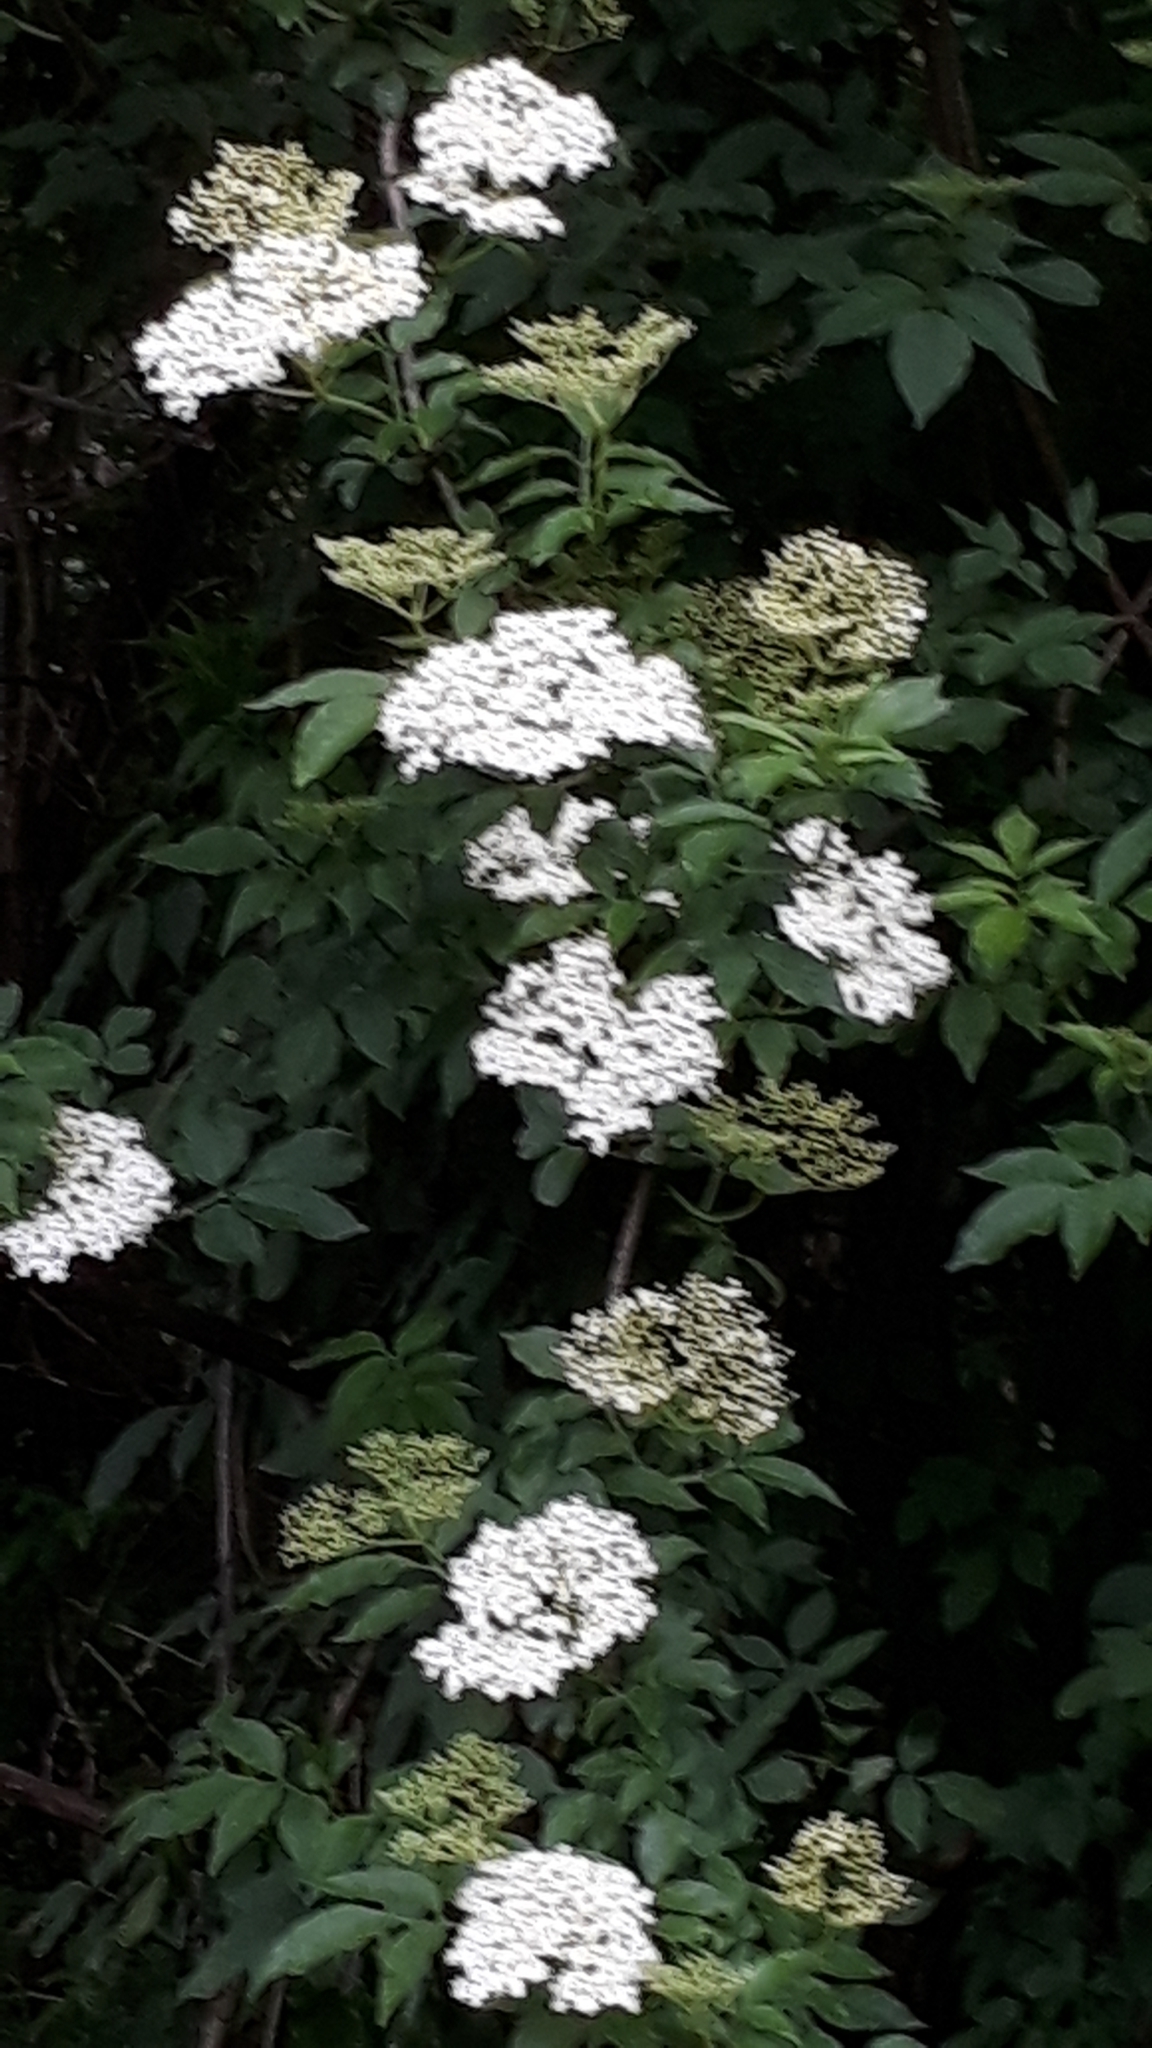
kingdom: Plantae
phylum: Tracheophyta
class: Magnoliopsida
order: Dipsacales
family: Viburnaceae
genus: Sambucus
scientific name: Sambucus nigra
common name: Elder
